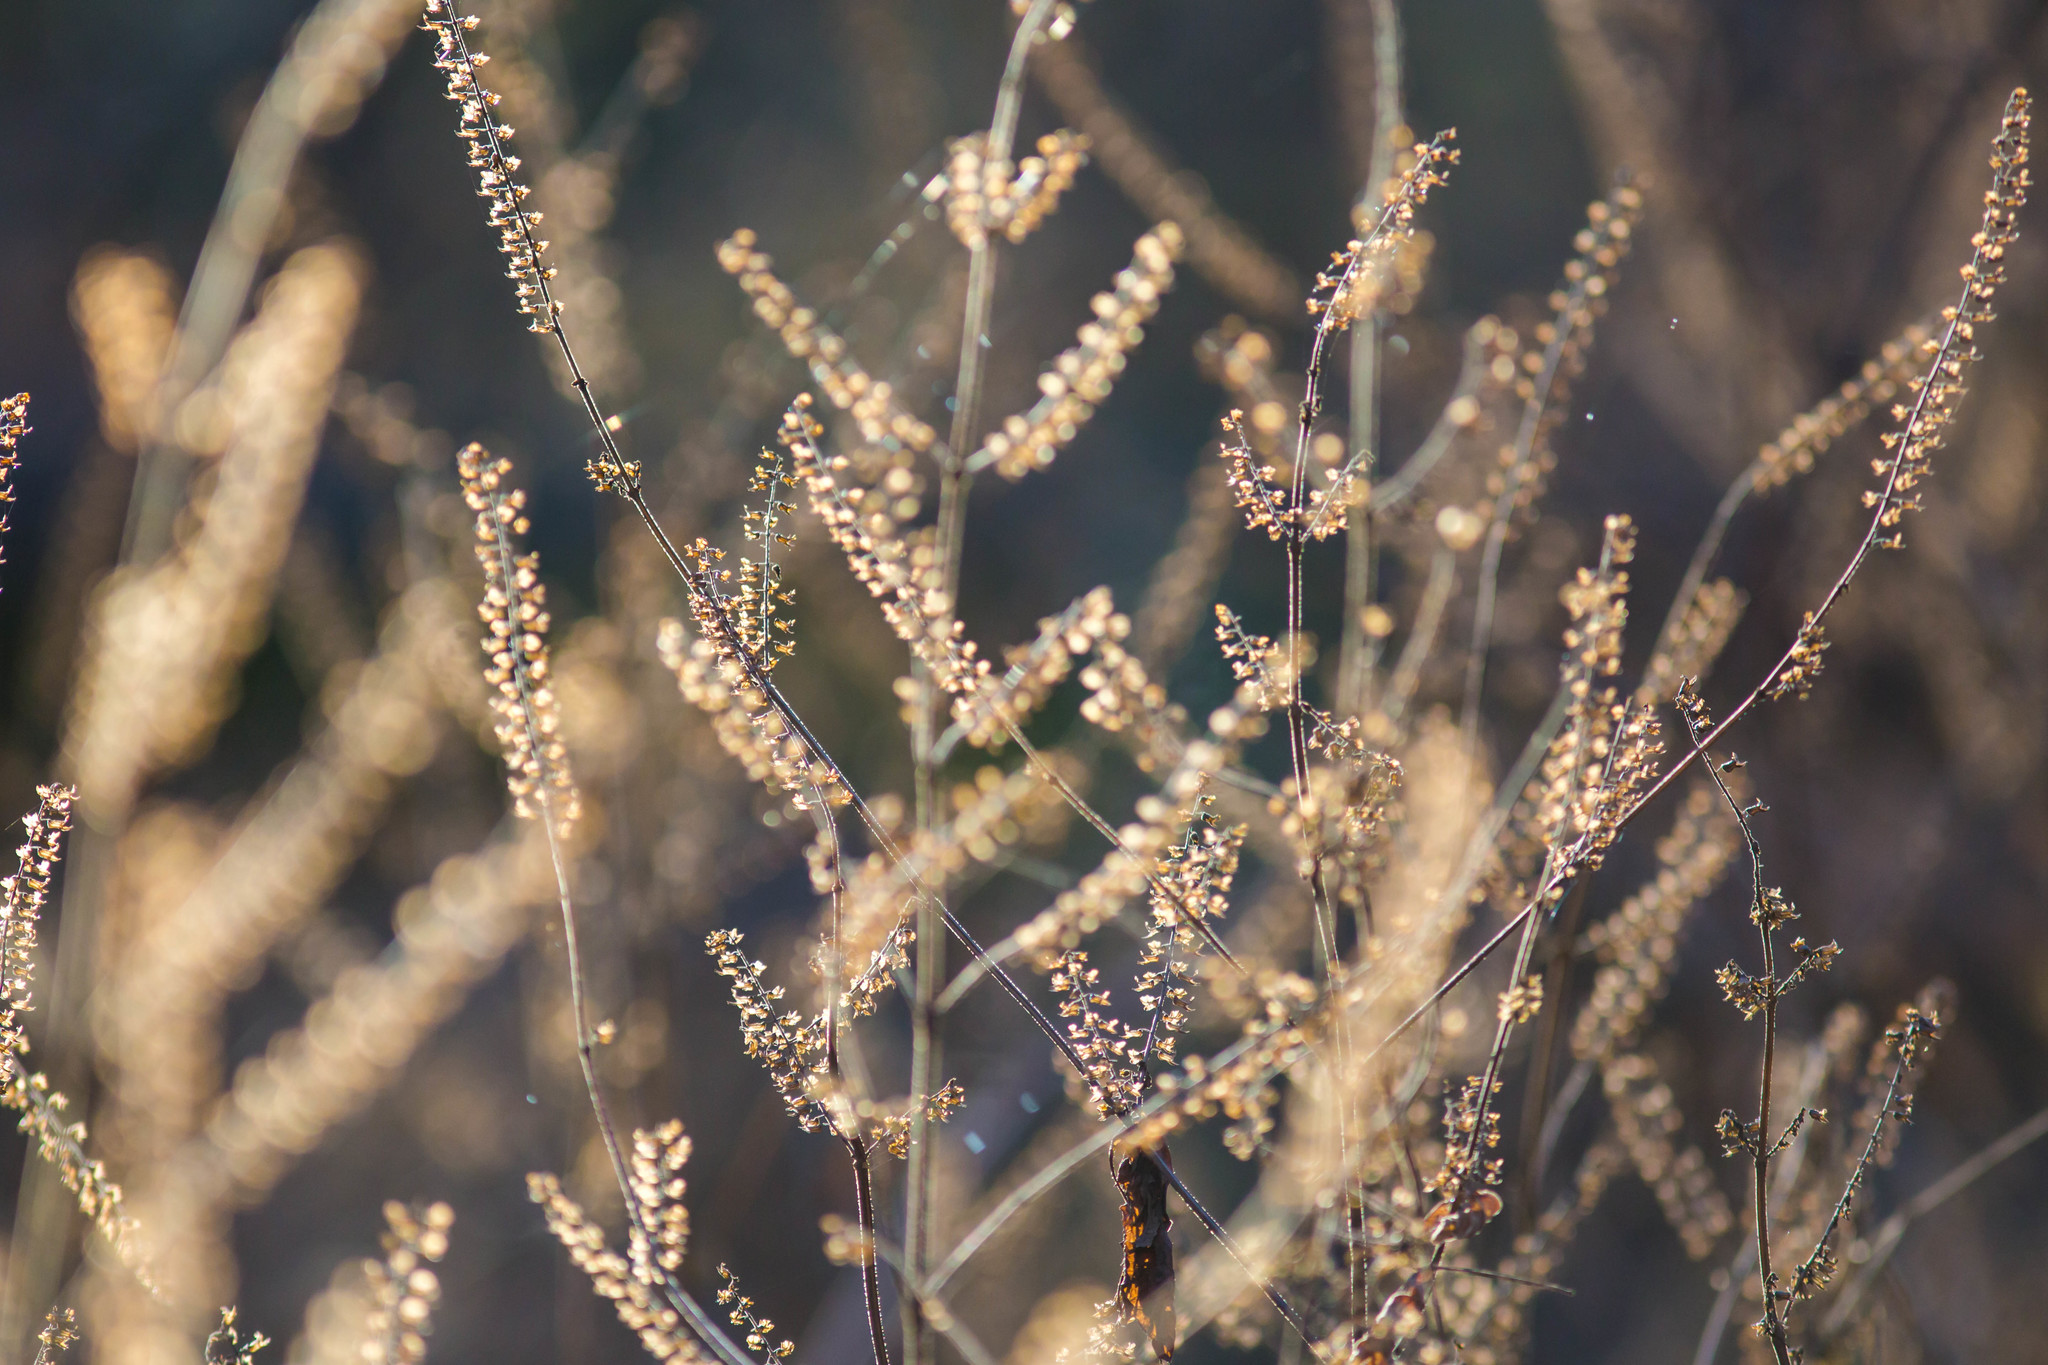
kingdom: Plantae
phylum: Tracheophyta
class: Magnoliopsida
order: Lamiales
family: Lamiaceae
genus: Perilla
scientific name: Perilla frutescens
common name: Perilla
